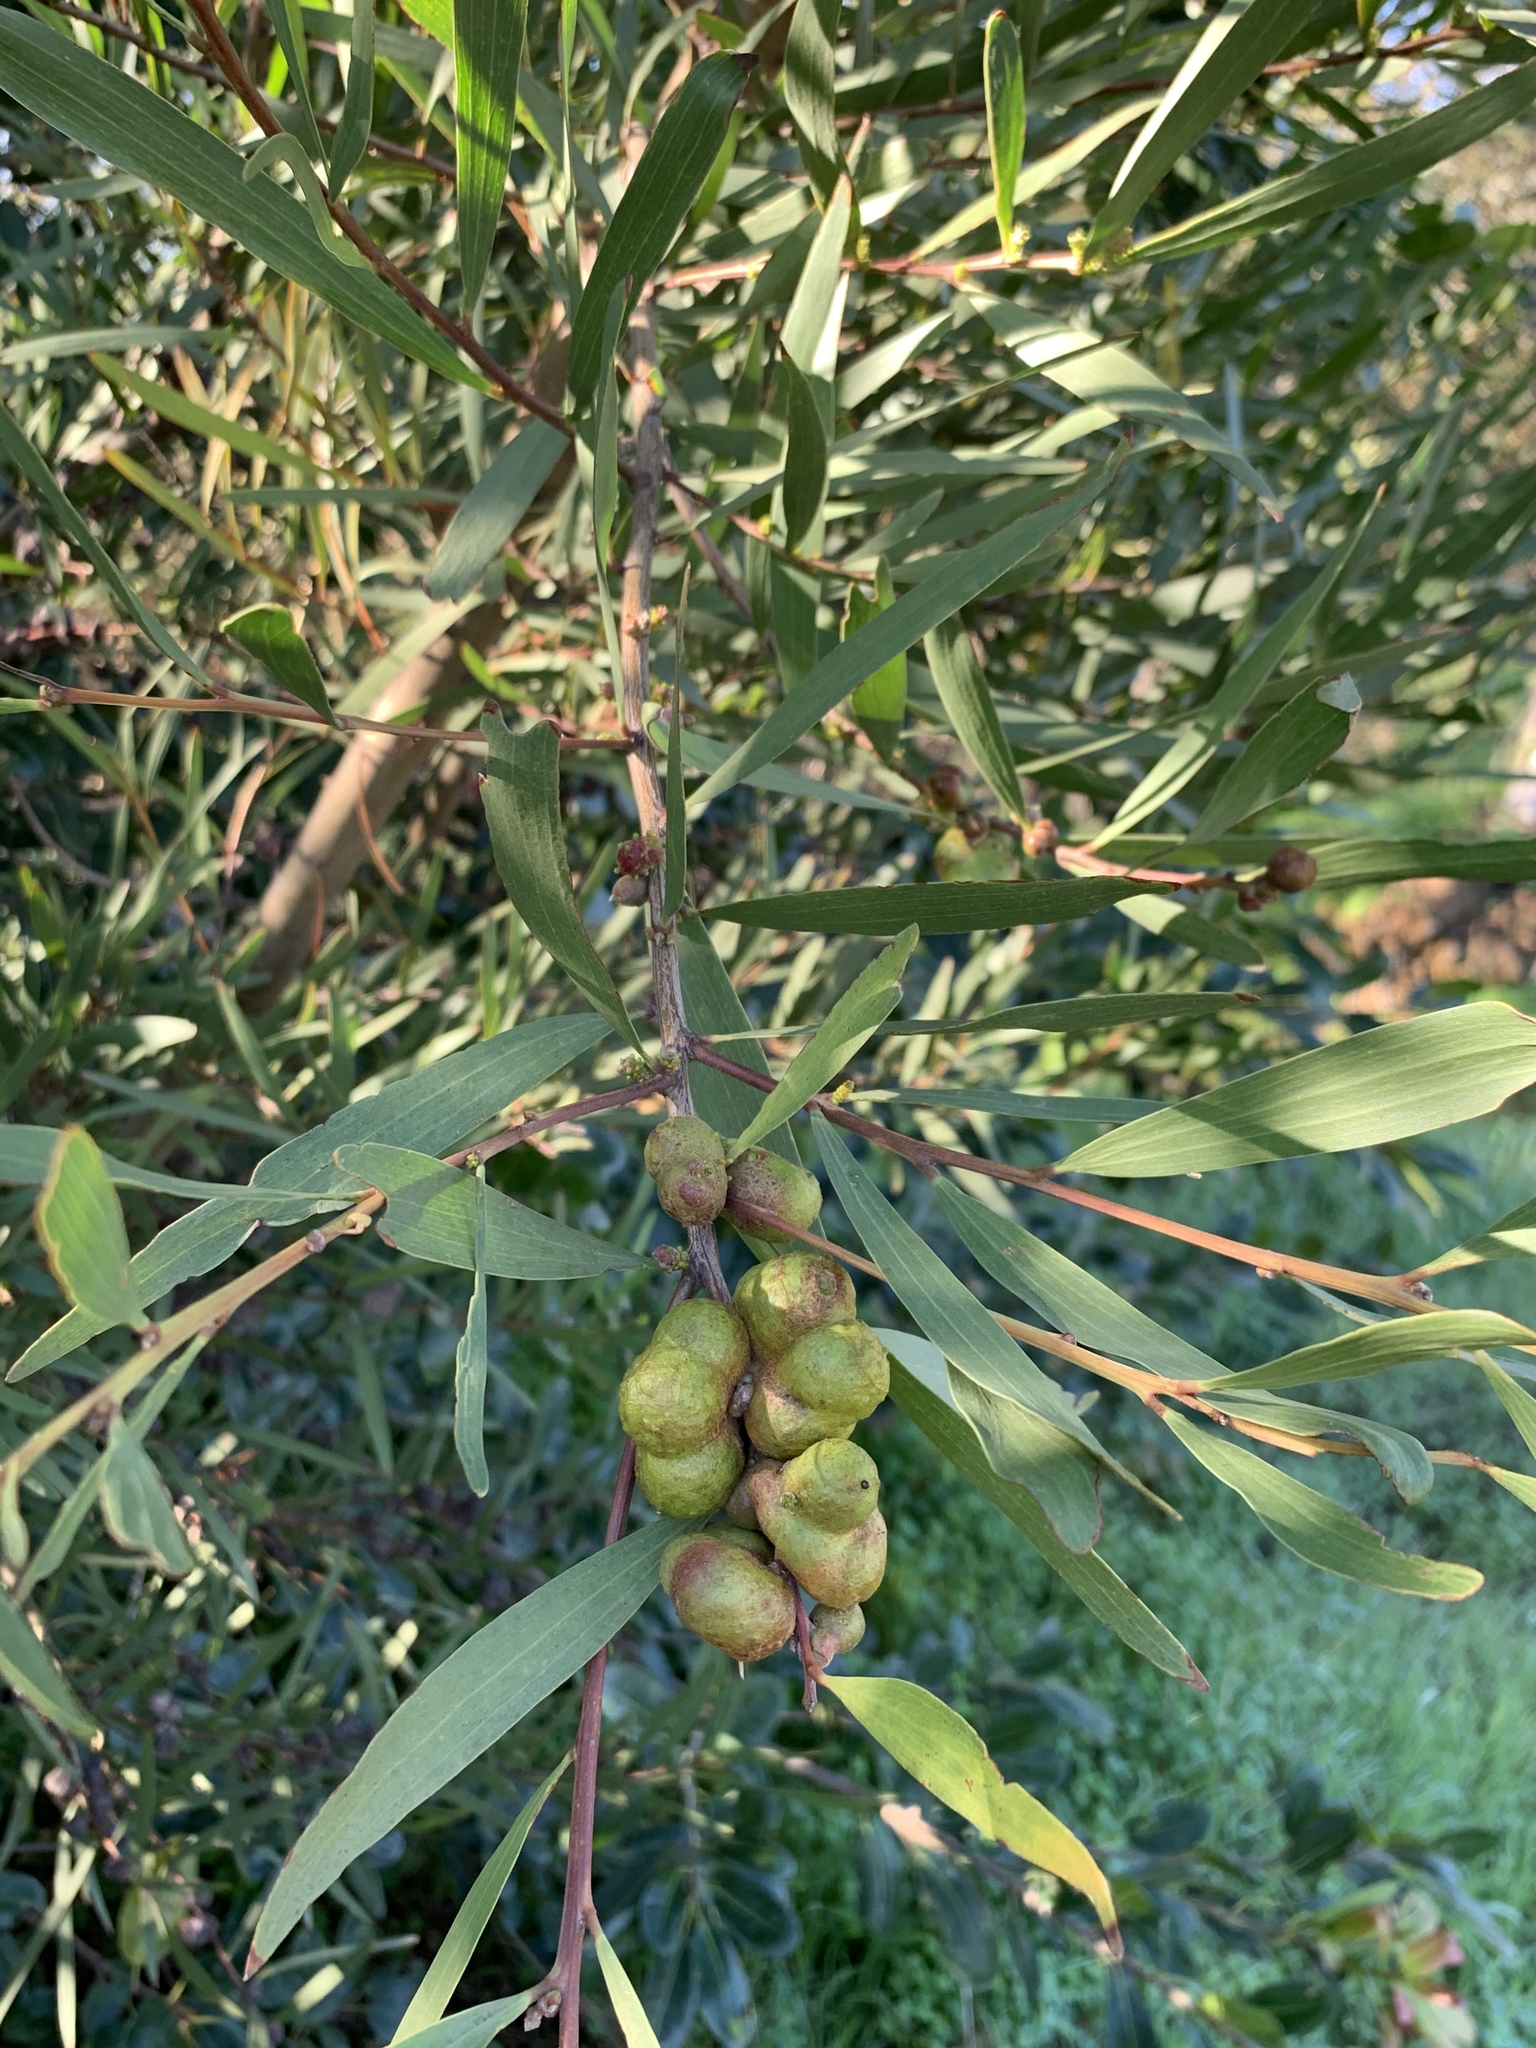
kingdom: Plantae
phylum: Tracheophyta
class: Magnoliopsida
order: Fabales
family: Fabaceae
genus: Acacia
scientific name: Acacia longifolia
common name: Sydney golden wattle
